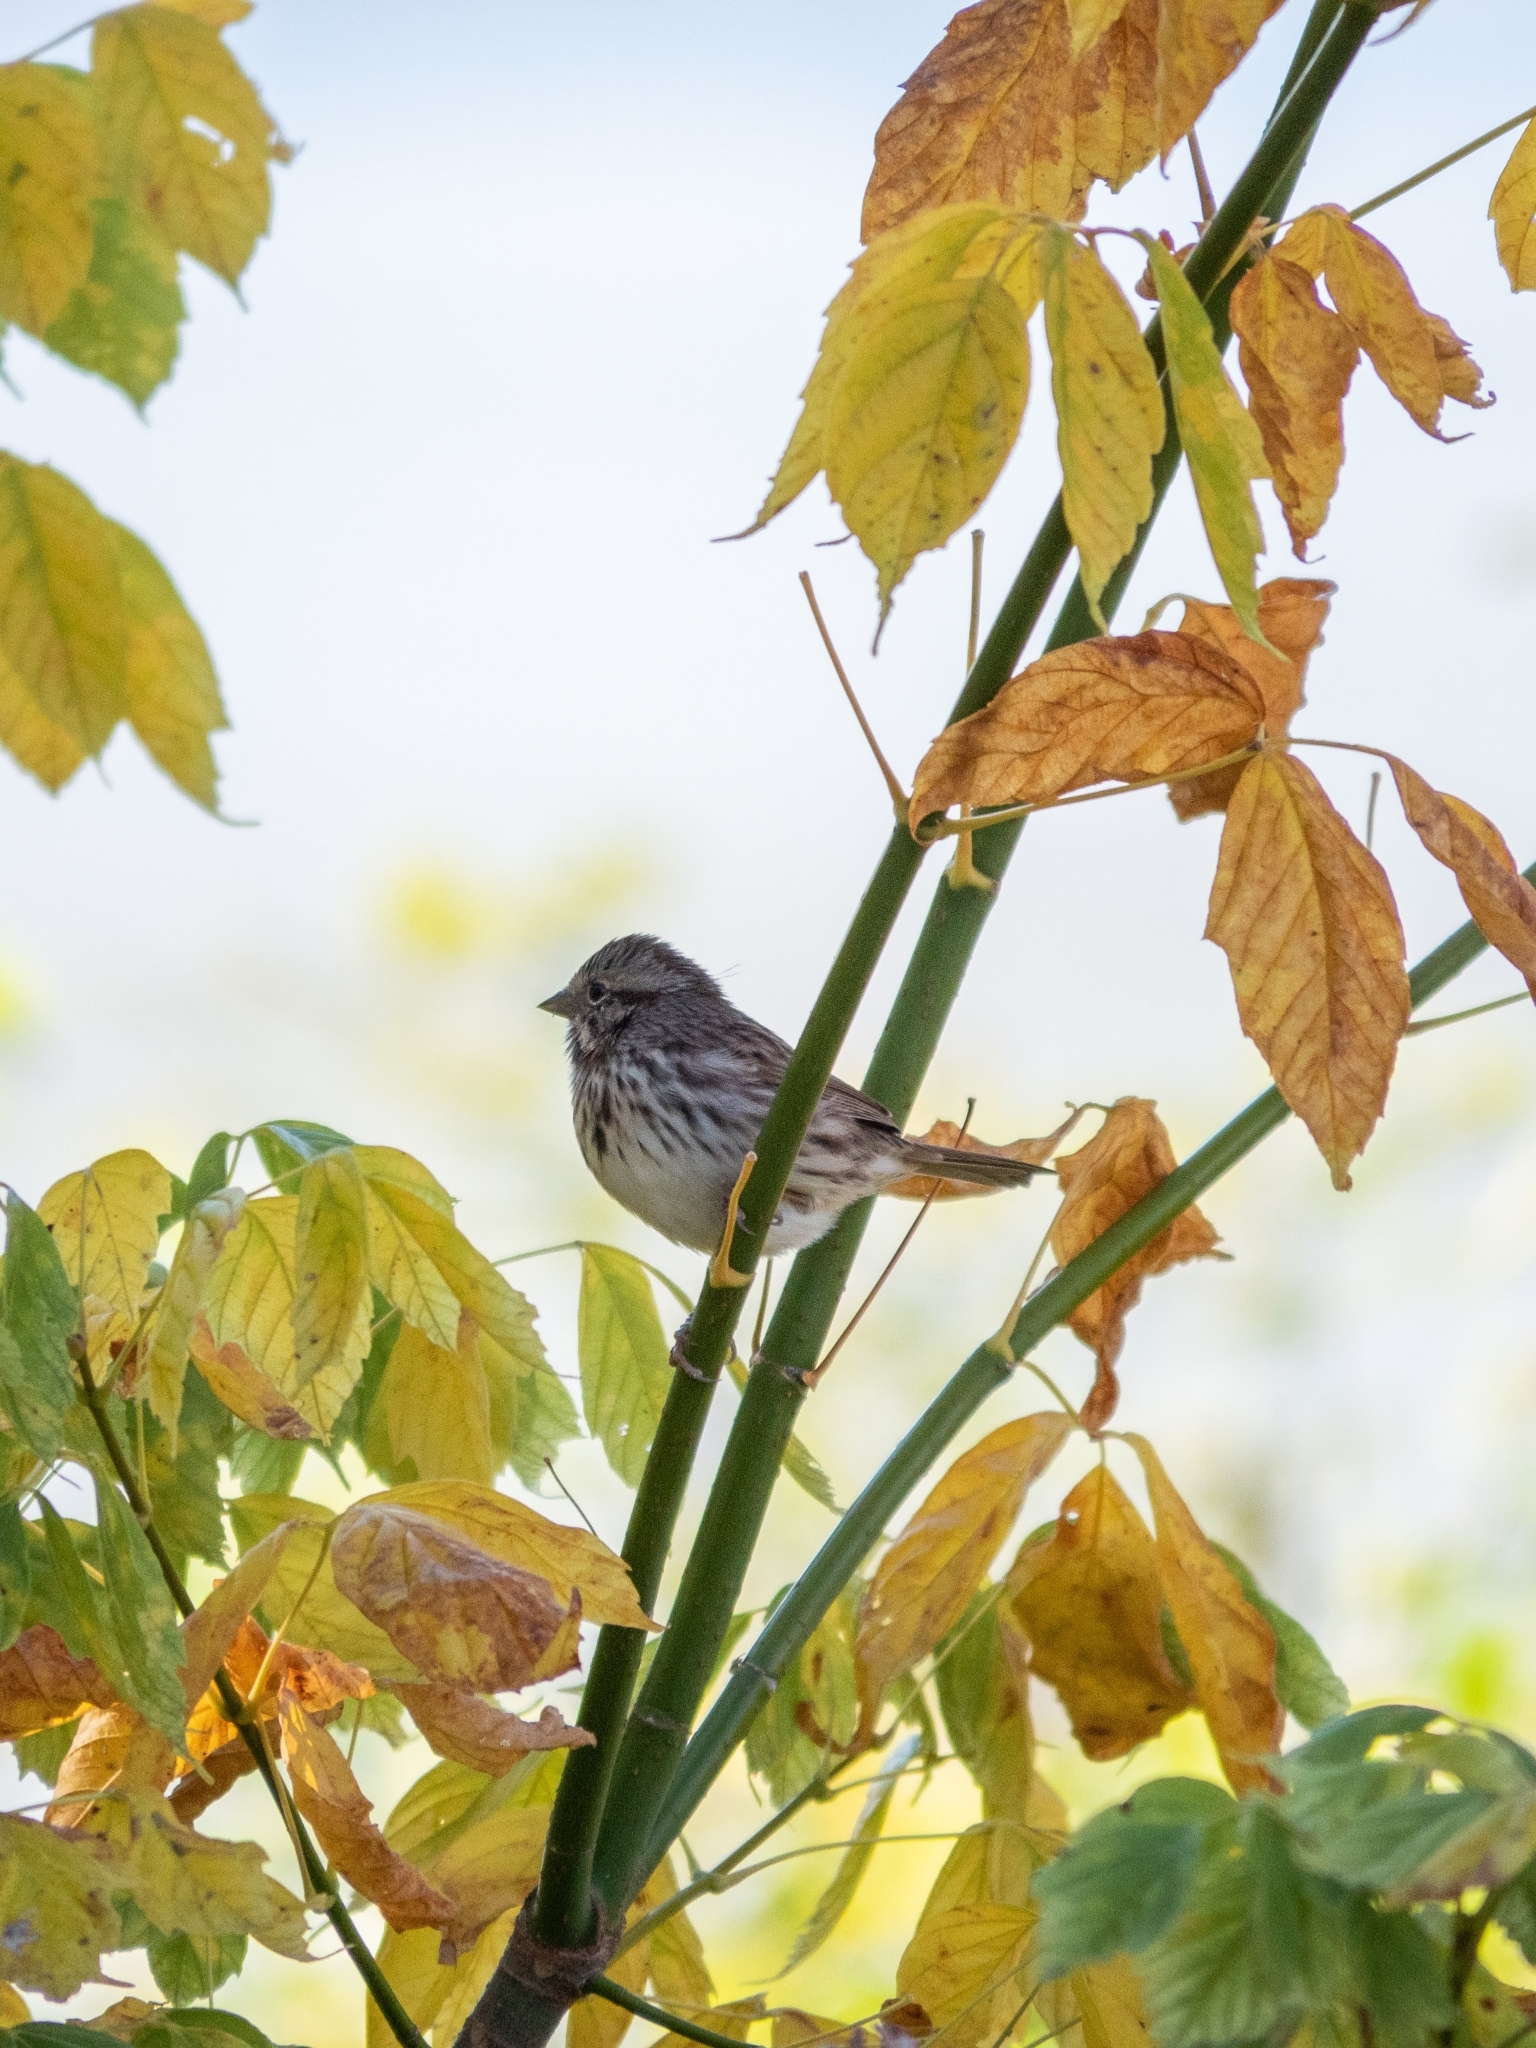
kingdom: Animalia
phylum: Chordata
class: Aves
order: Passeriformes
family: Passerellidae
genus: Melospiza
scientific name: Melospiza melodia
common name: Song sparrow
